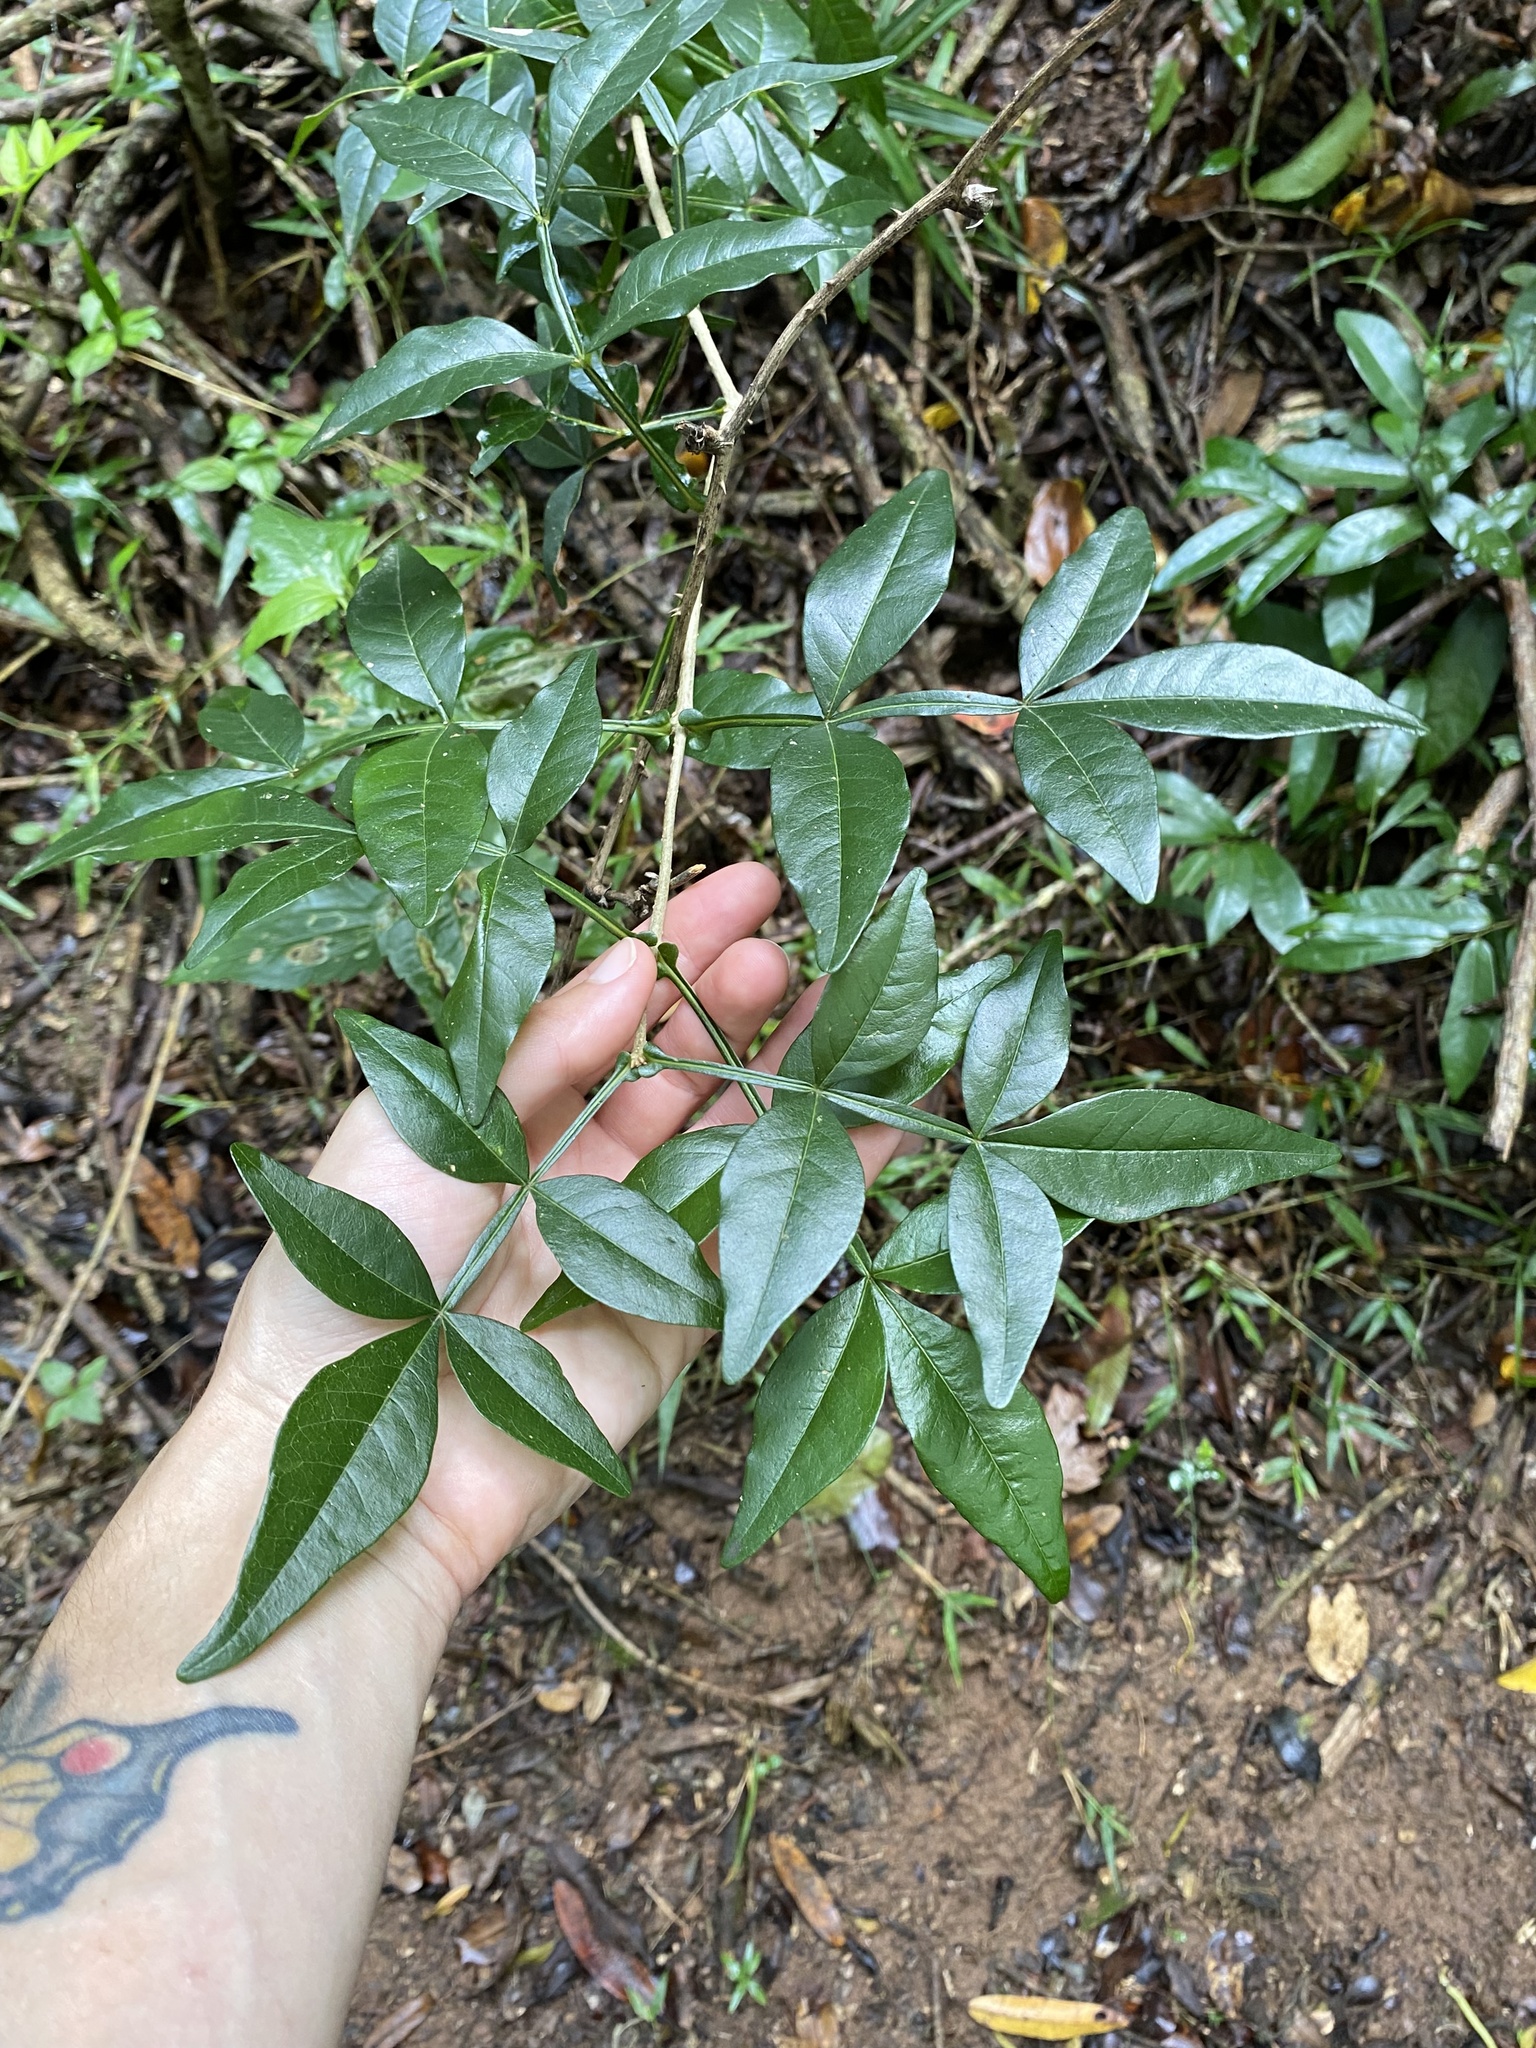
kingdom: Plantae
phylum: Tracheophyta
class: Magnoliopsida
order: Lamiales
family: Oleaceae
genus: Schrebera
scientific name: Schrebera alata
